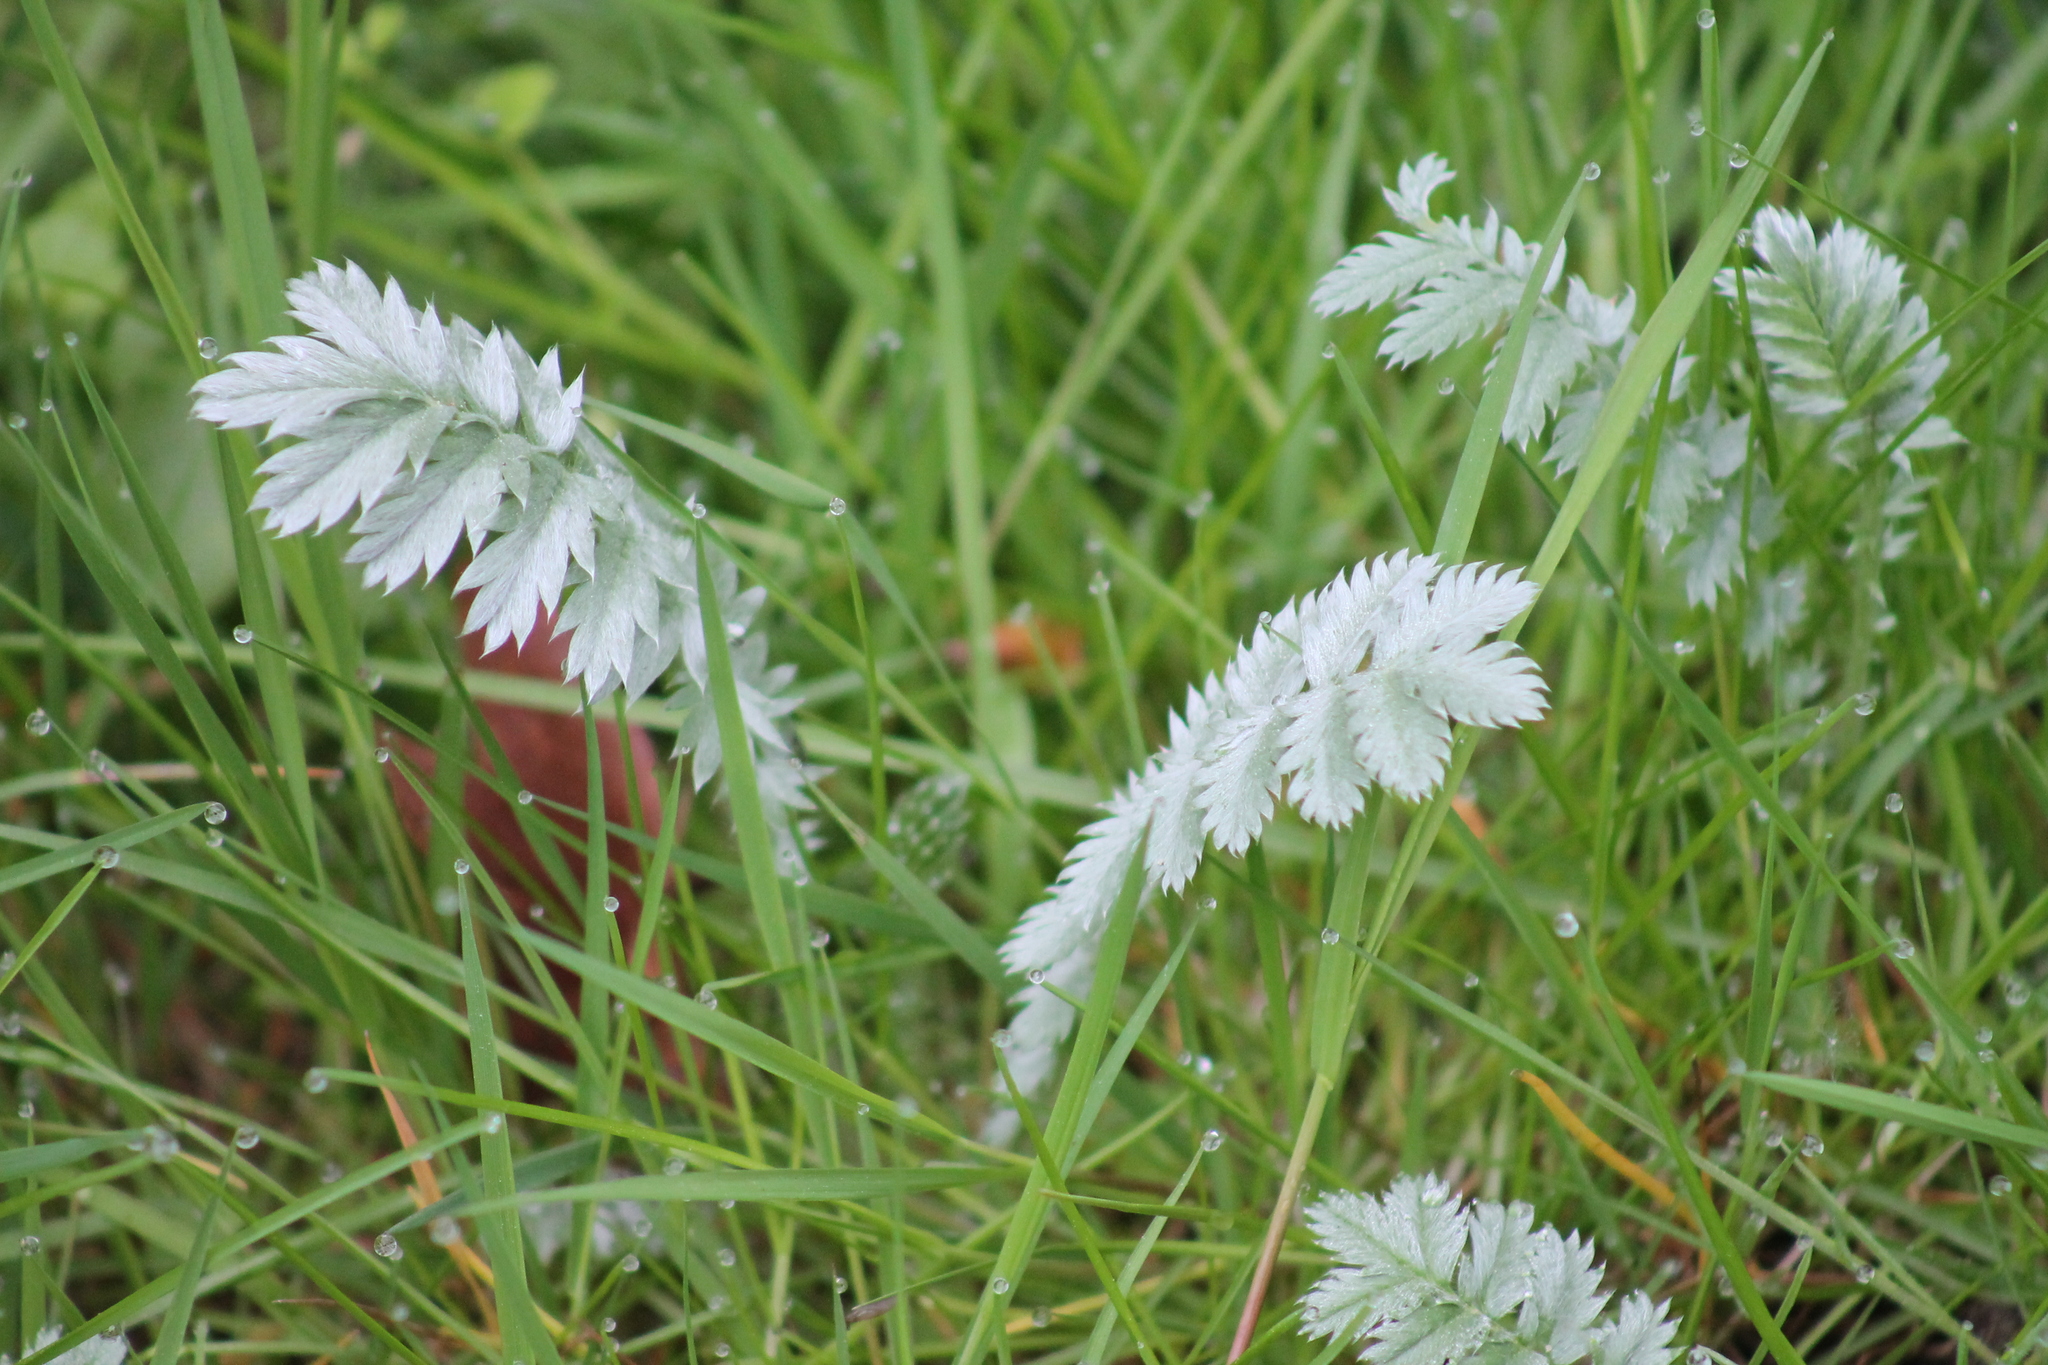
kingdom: Plantae
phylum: Tracheophyta
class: Magnoliopsida
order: Rosales
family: Rosaceae
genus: Argentina
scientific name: Argentina anserina
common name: Common silverweed
